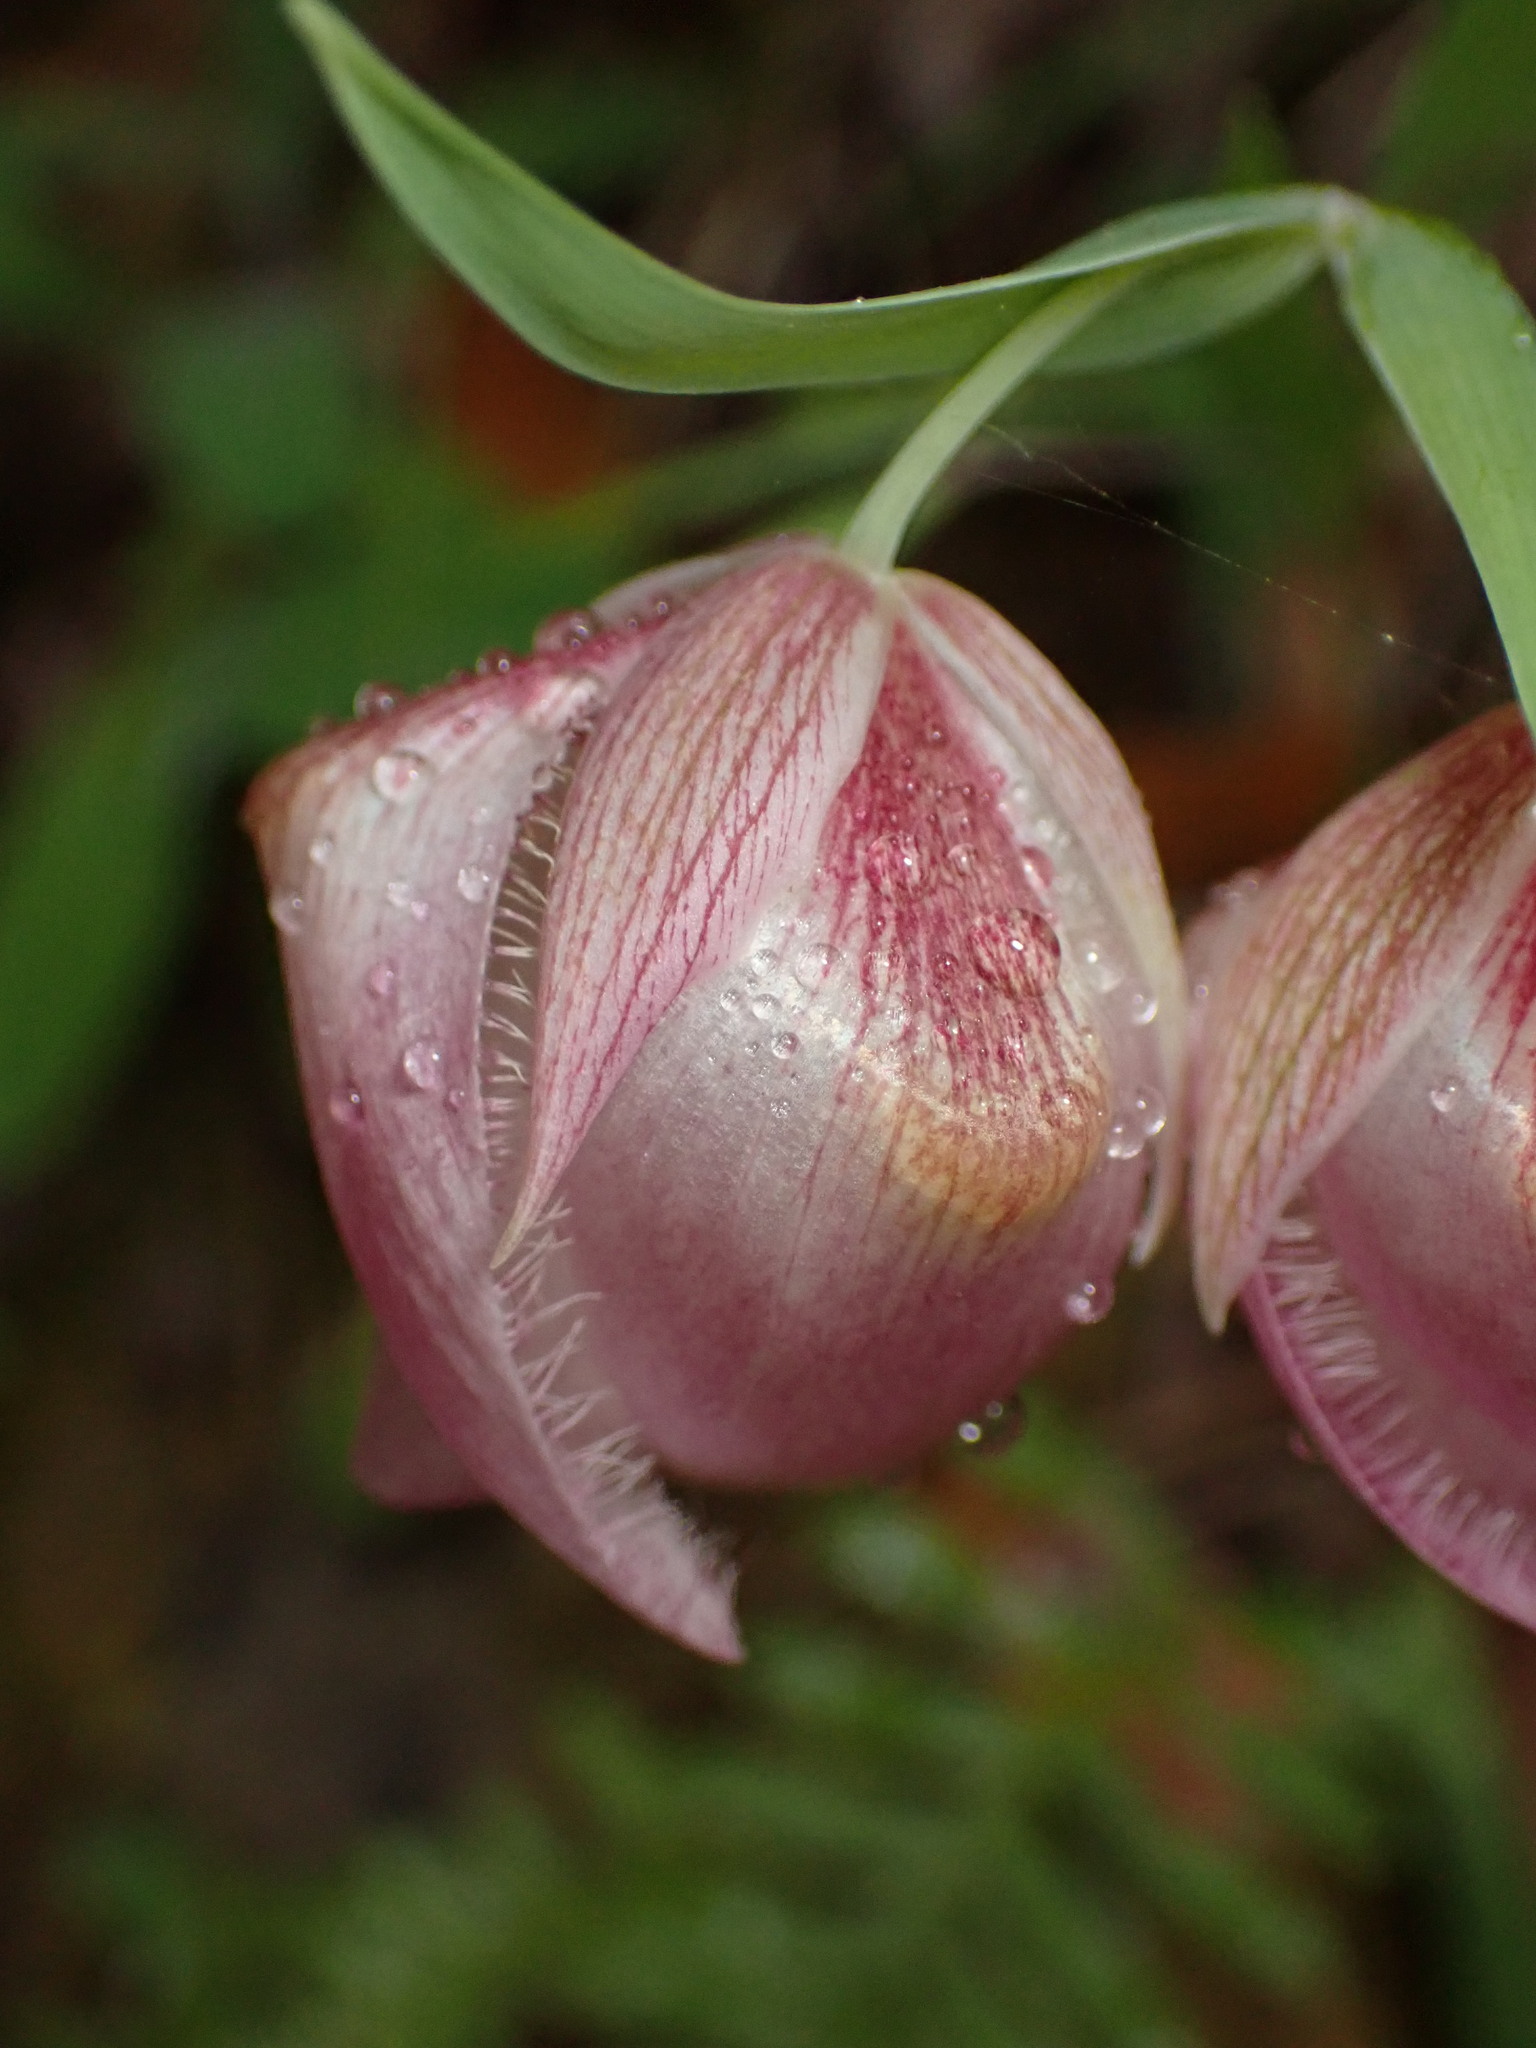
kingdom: Plantae
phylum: Tracheophyta
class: Liliopsida
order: Liliales
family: Liliaceae
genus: Calochortus
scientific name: Calochortus albus
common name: Fairy-lantern
